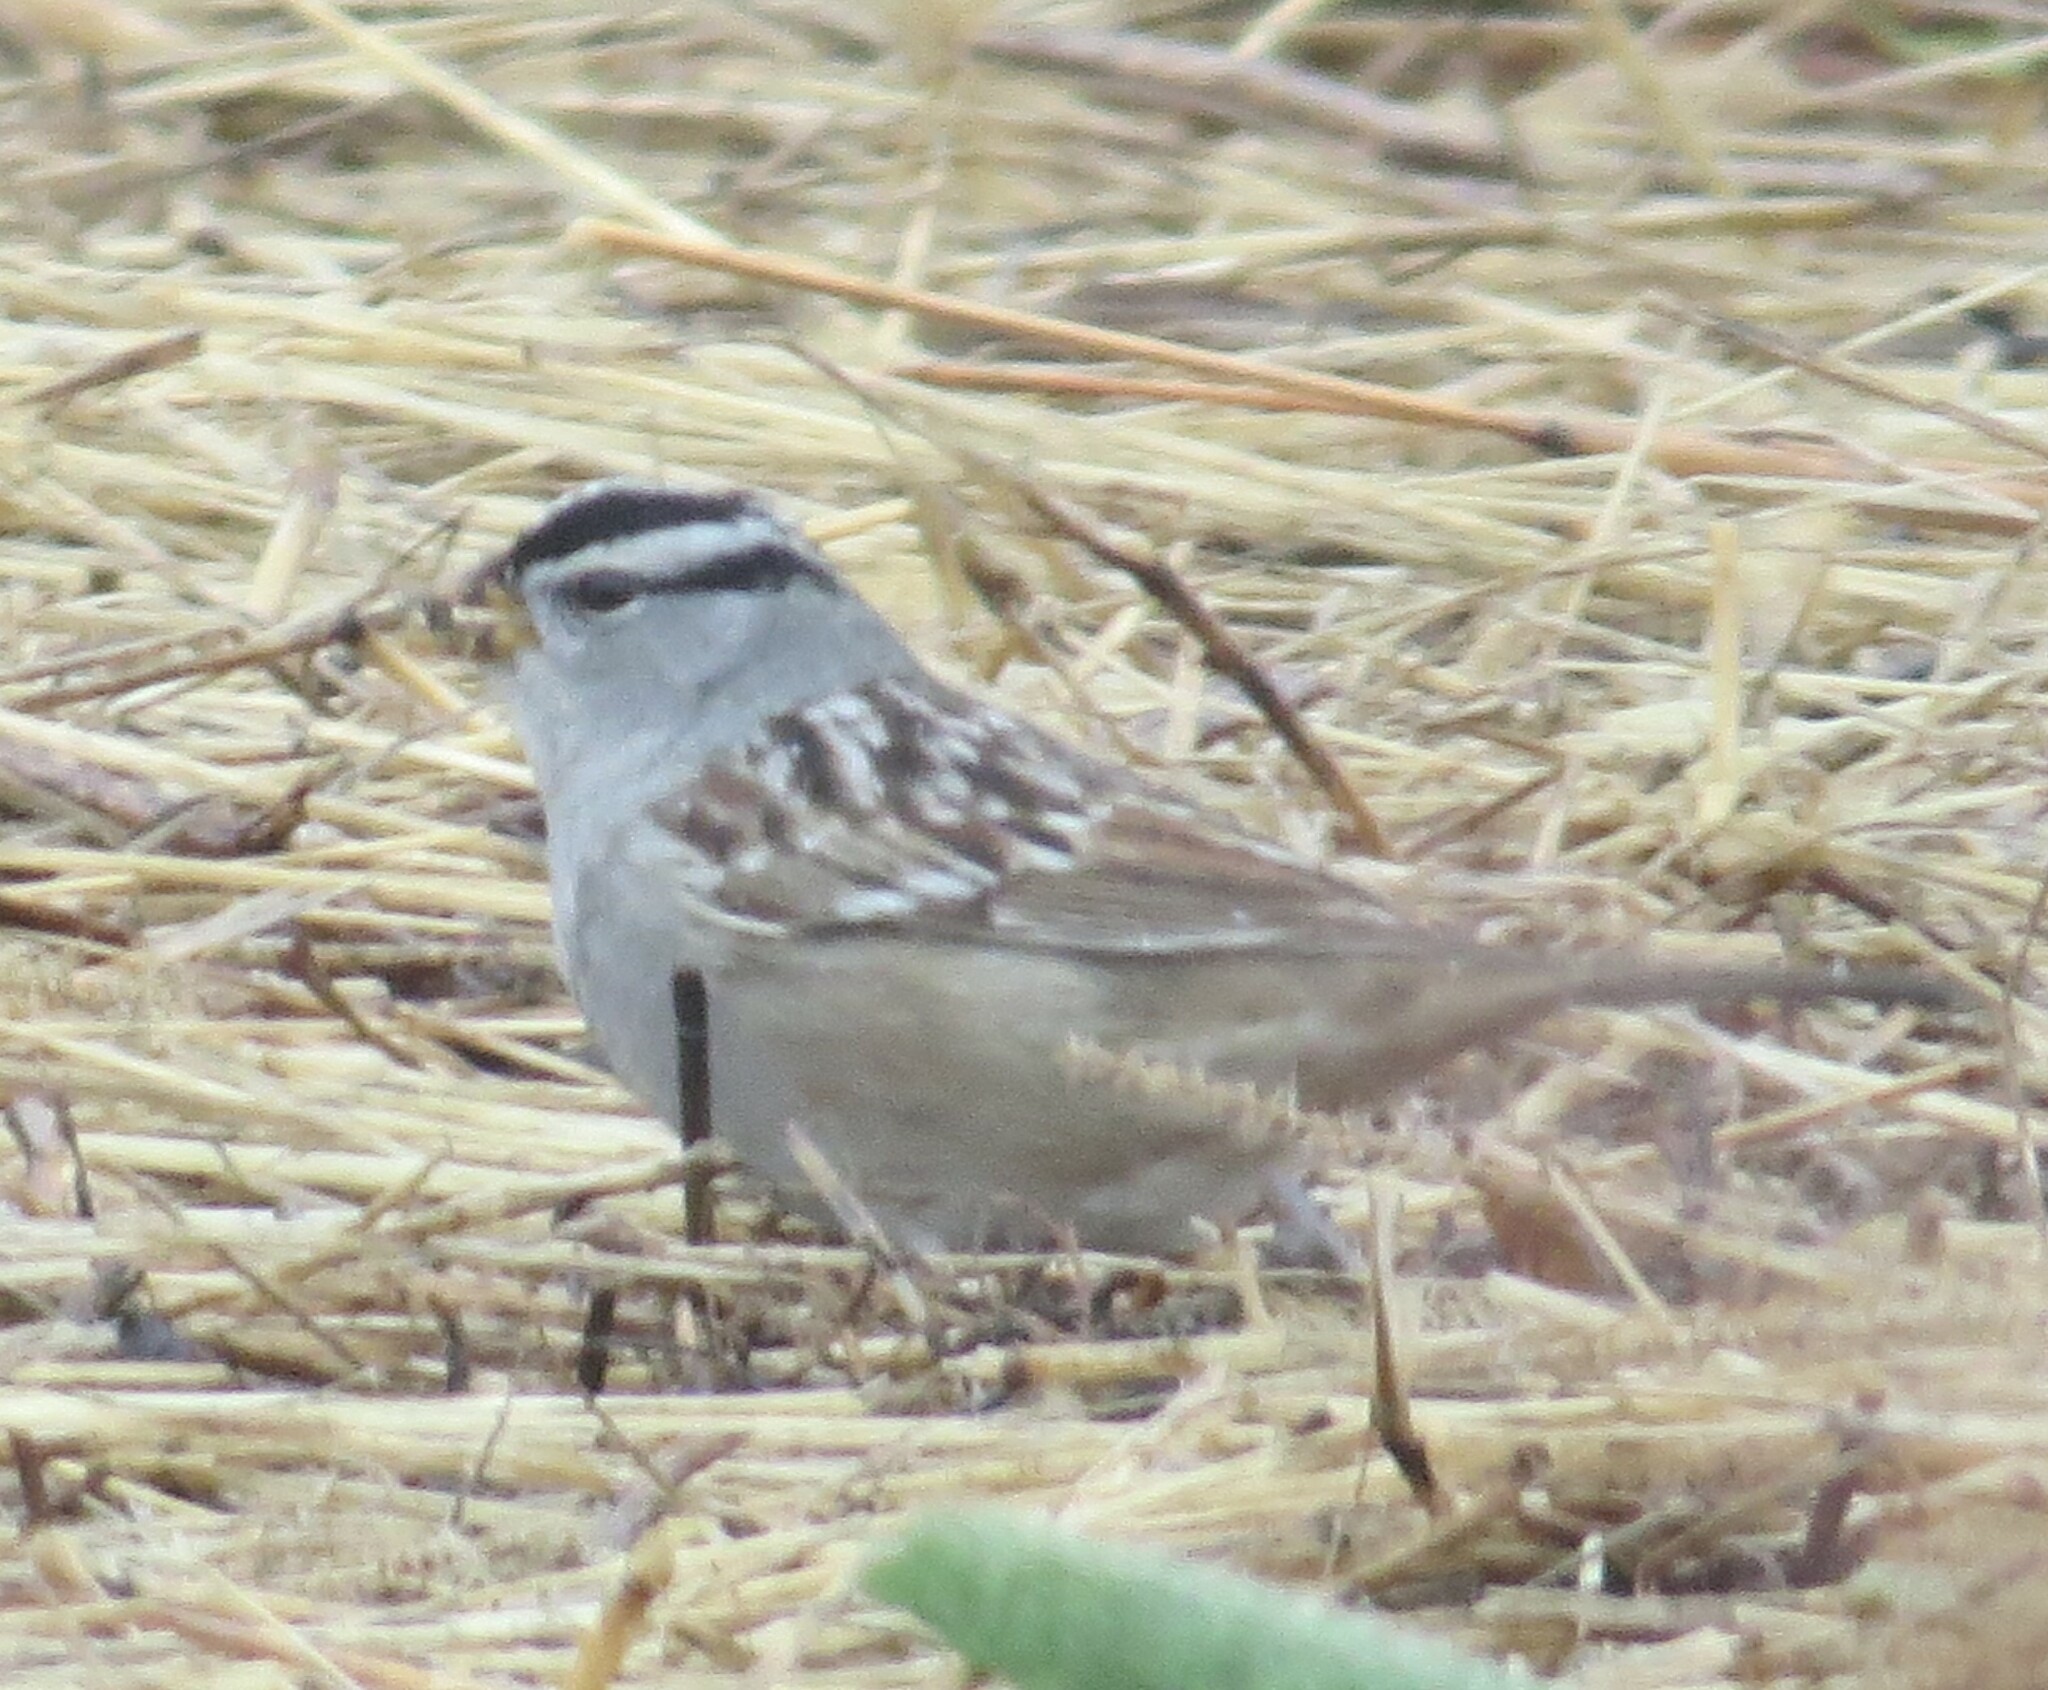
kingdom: Animalia
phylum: Chordata
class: Aves
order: Passeriformes
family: Passerellidae
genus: Zonotrichia
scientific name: Zonotrichia leucophrys
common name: White-crowned sparrow
